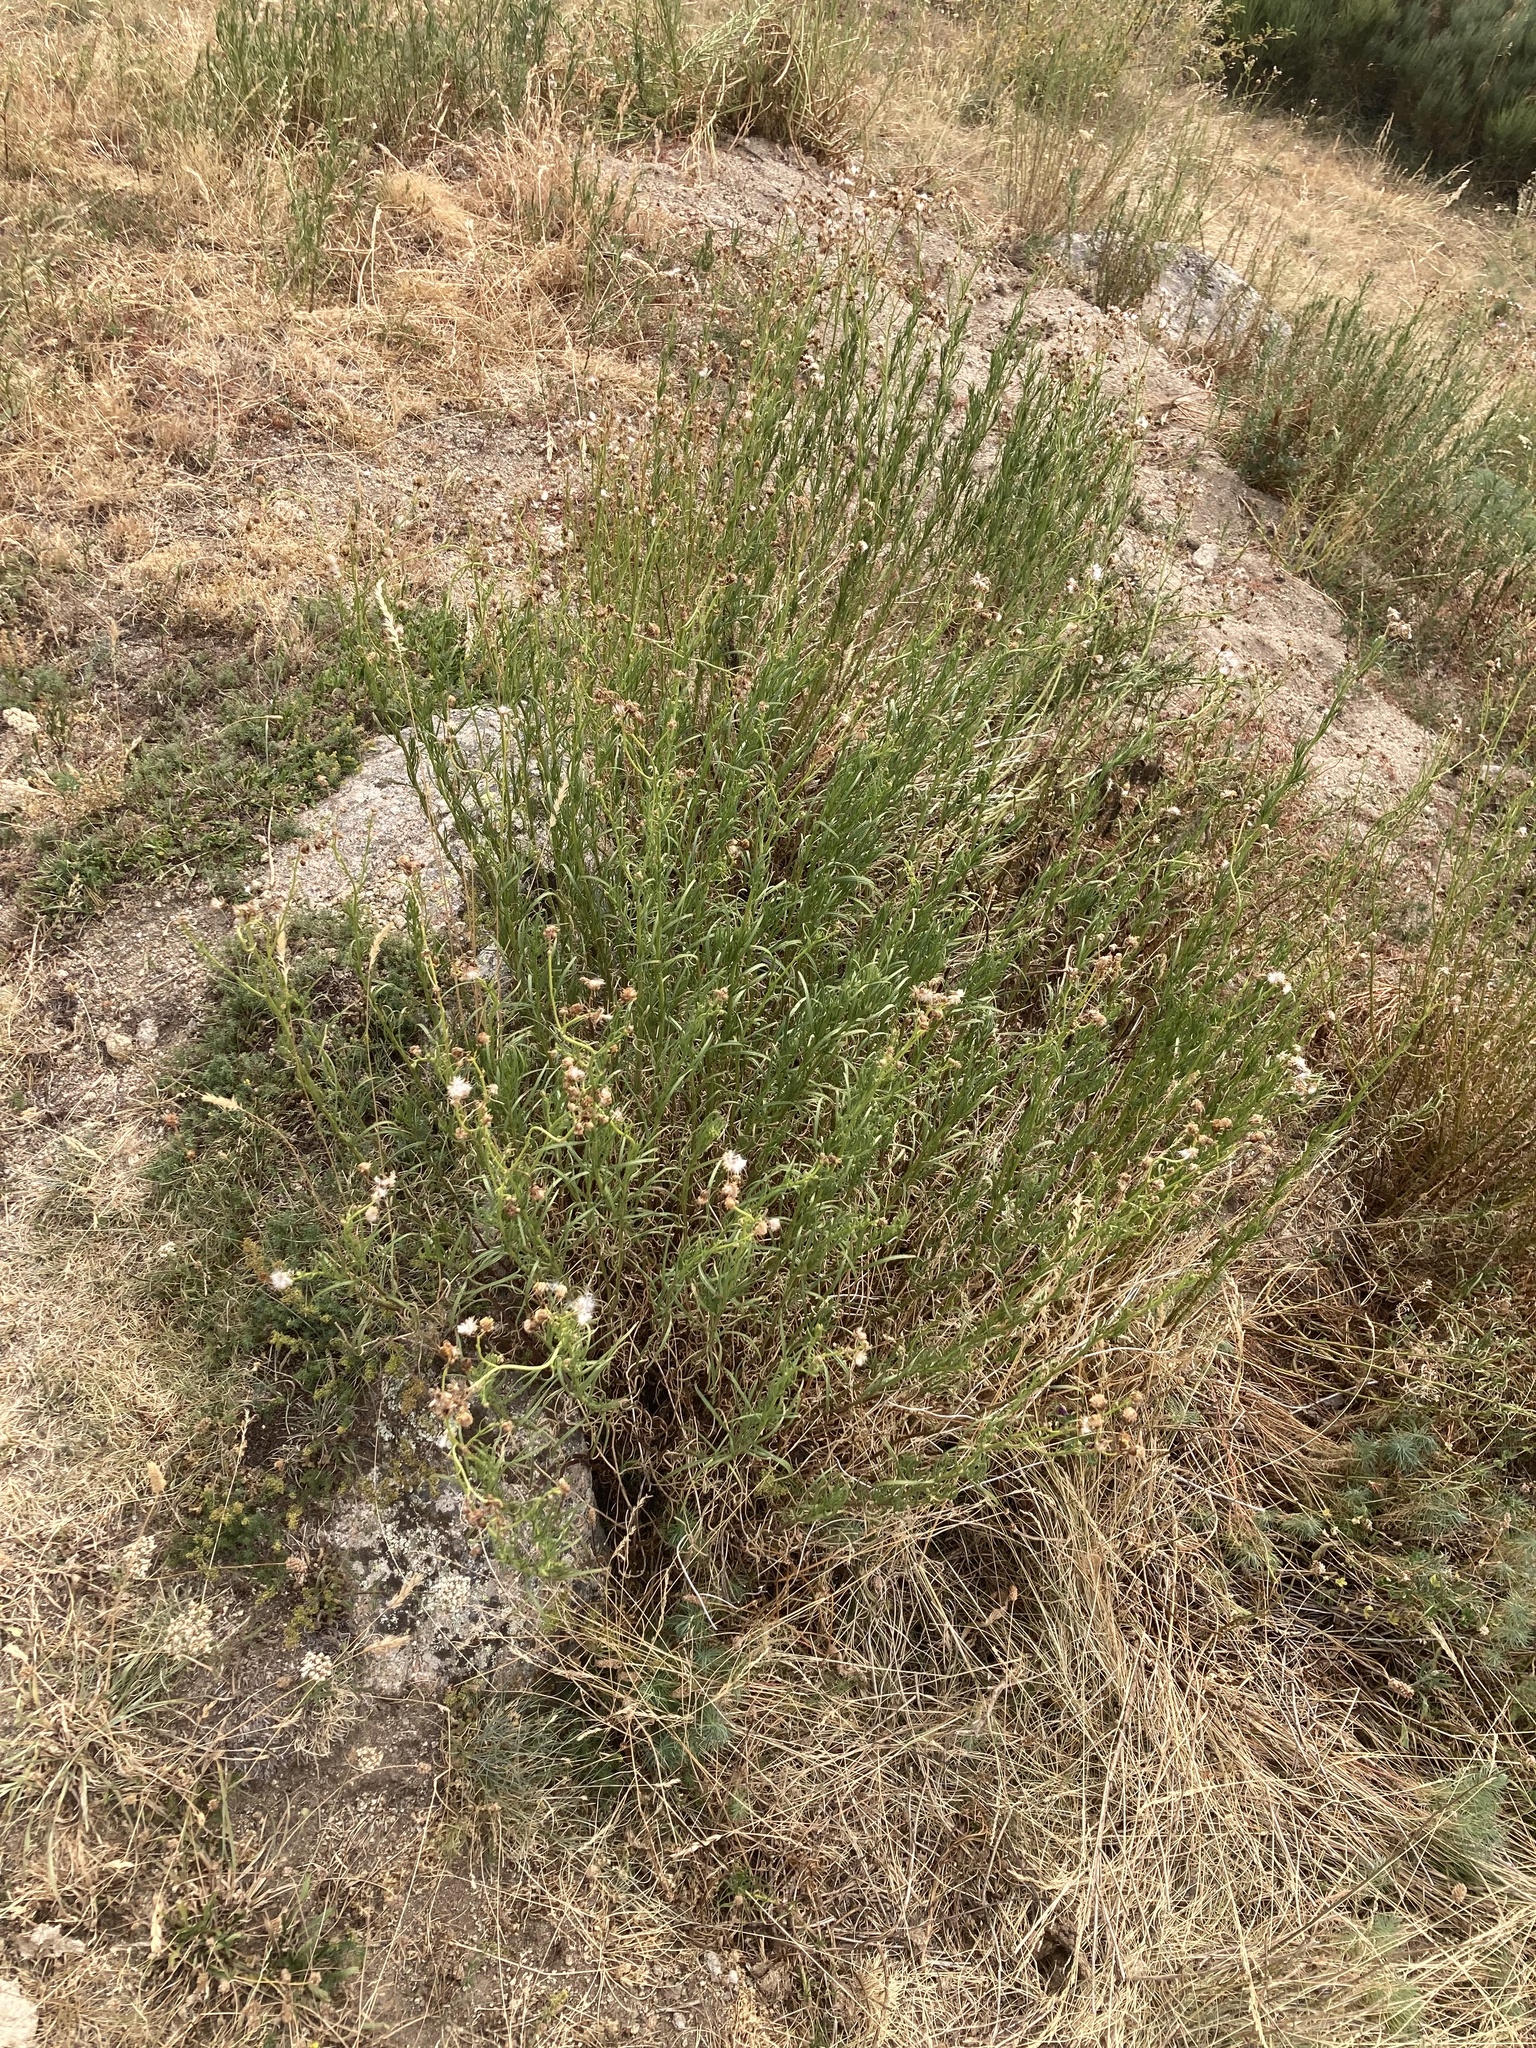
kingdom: Plantae
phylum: Tracheophyta
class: Magnoliopsida
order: Asterales
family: Asteraceae
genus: Senecio
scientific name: Senecio inaequidens
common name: Narrow-leaved ragwort
